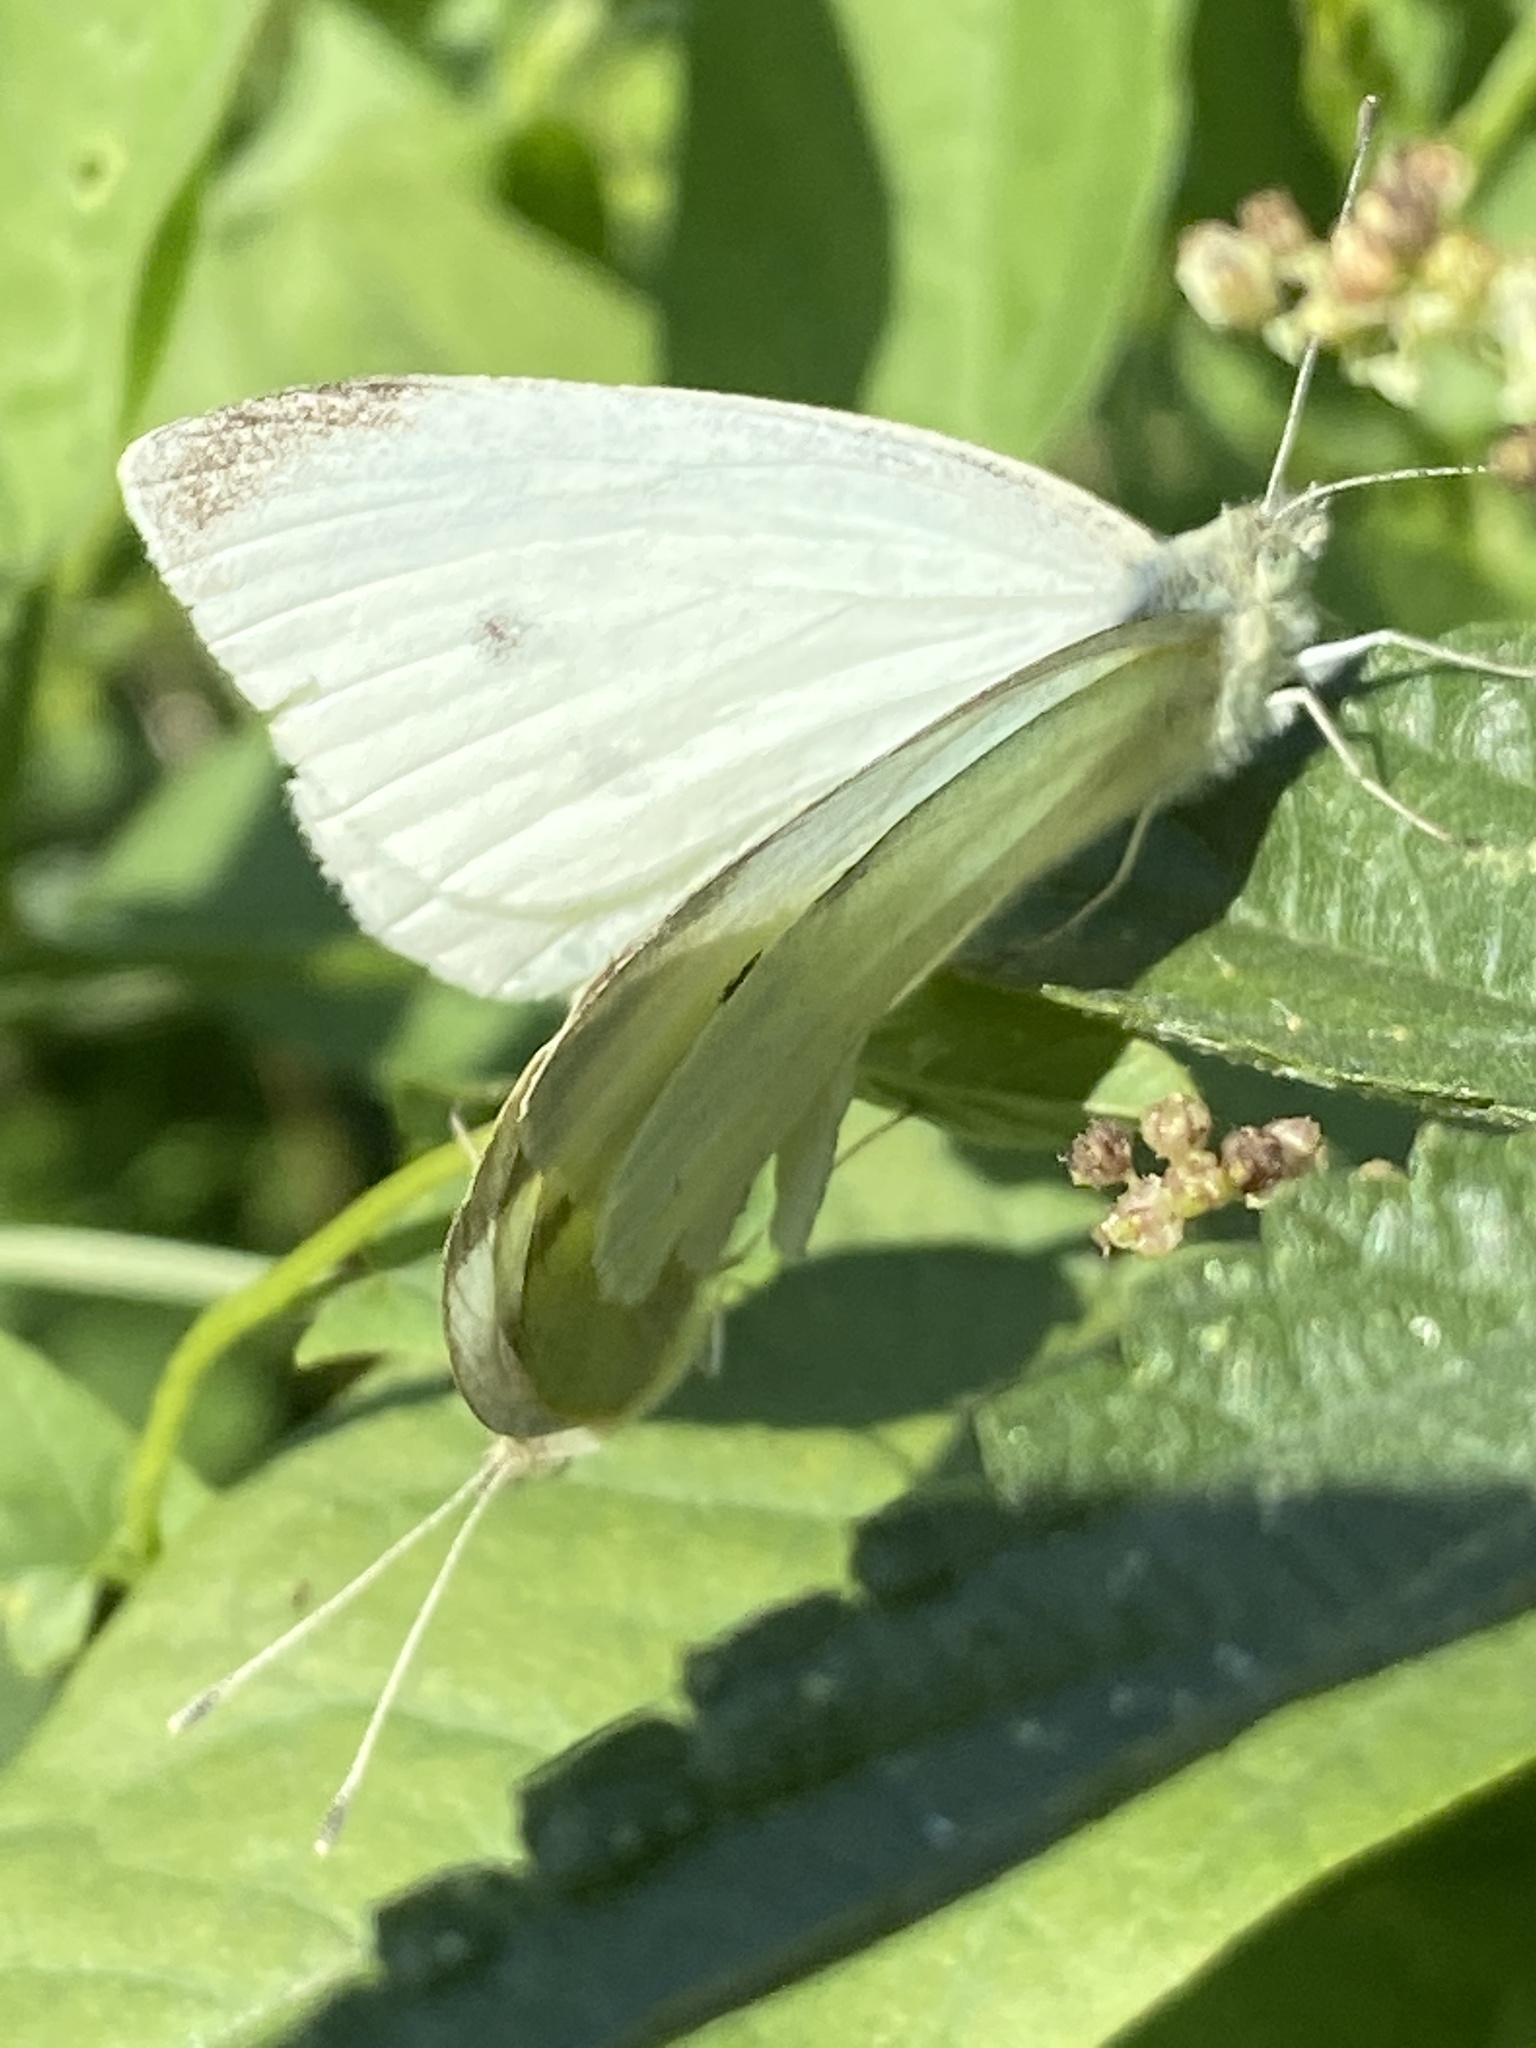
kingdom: Animalia
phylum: Arthropoda
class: Insecta
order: Lepidoptera
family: Pieridae
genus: Pieris
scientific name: Pieris rapae
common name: Small white
